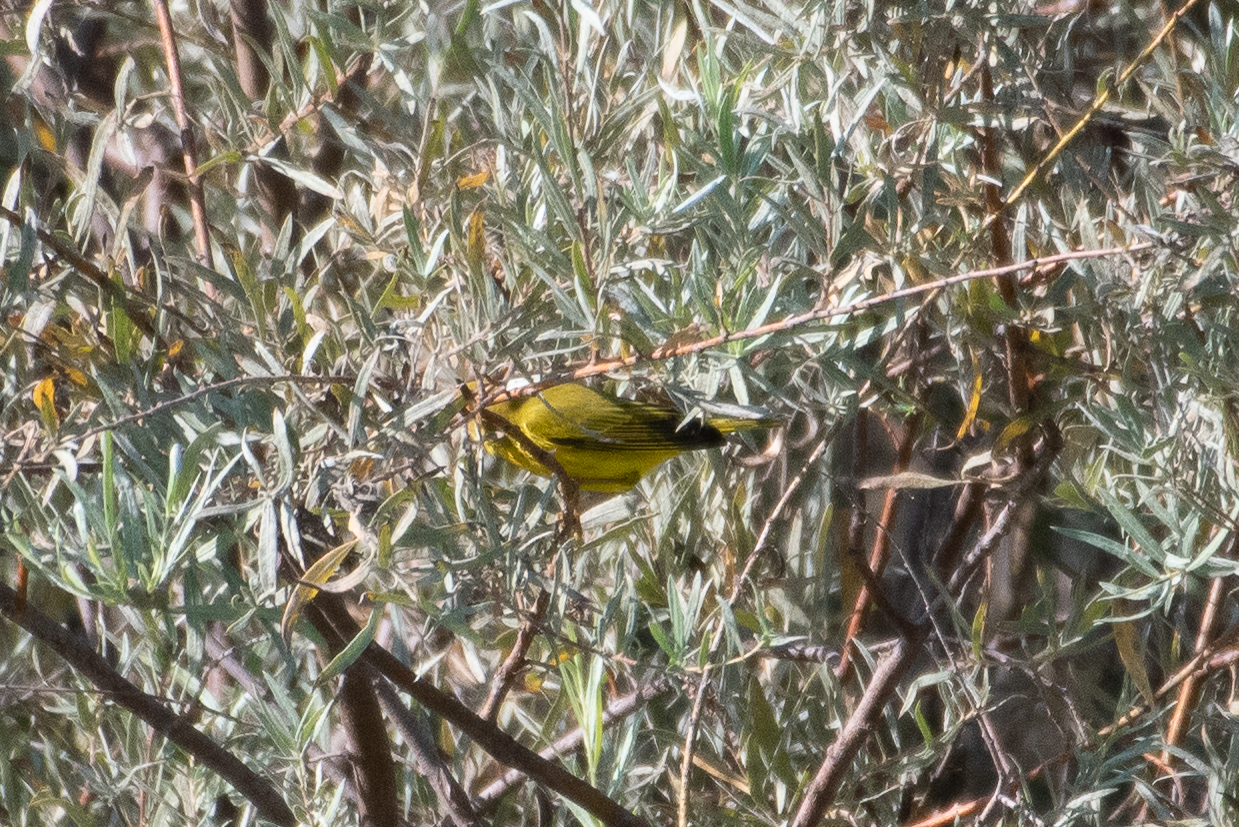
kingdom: Animalia
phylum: Chordata
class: Aves
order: Passeriformes
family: Parulidae
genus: Setophaga
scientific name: Setophaga petechia
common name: Yellow warbler
